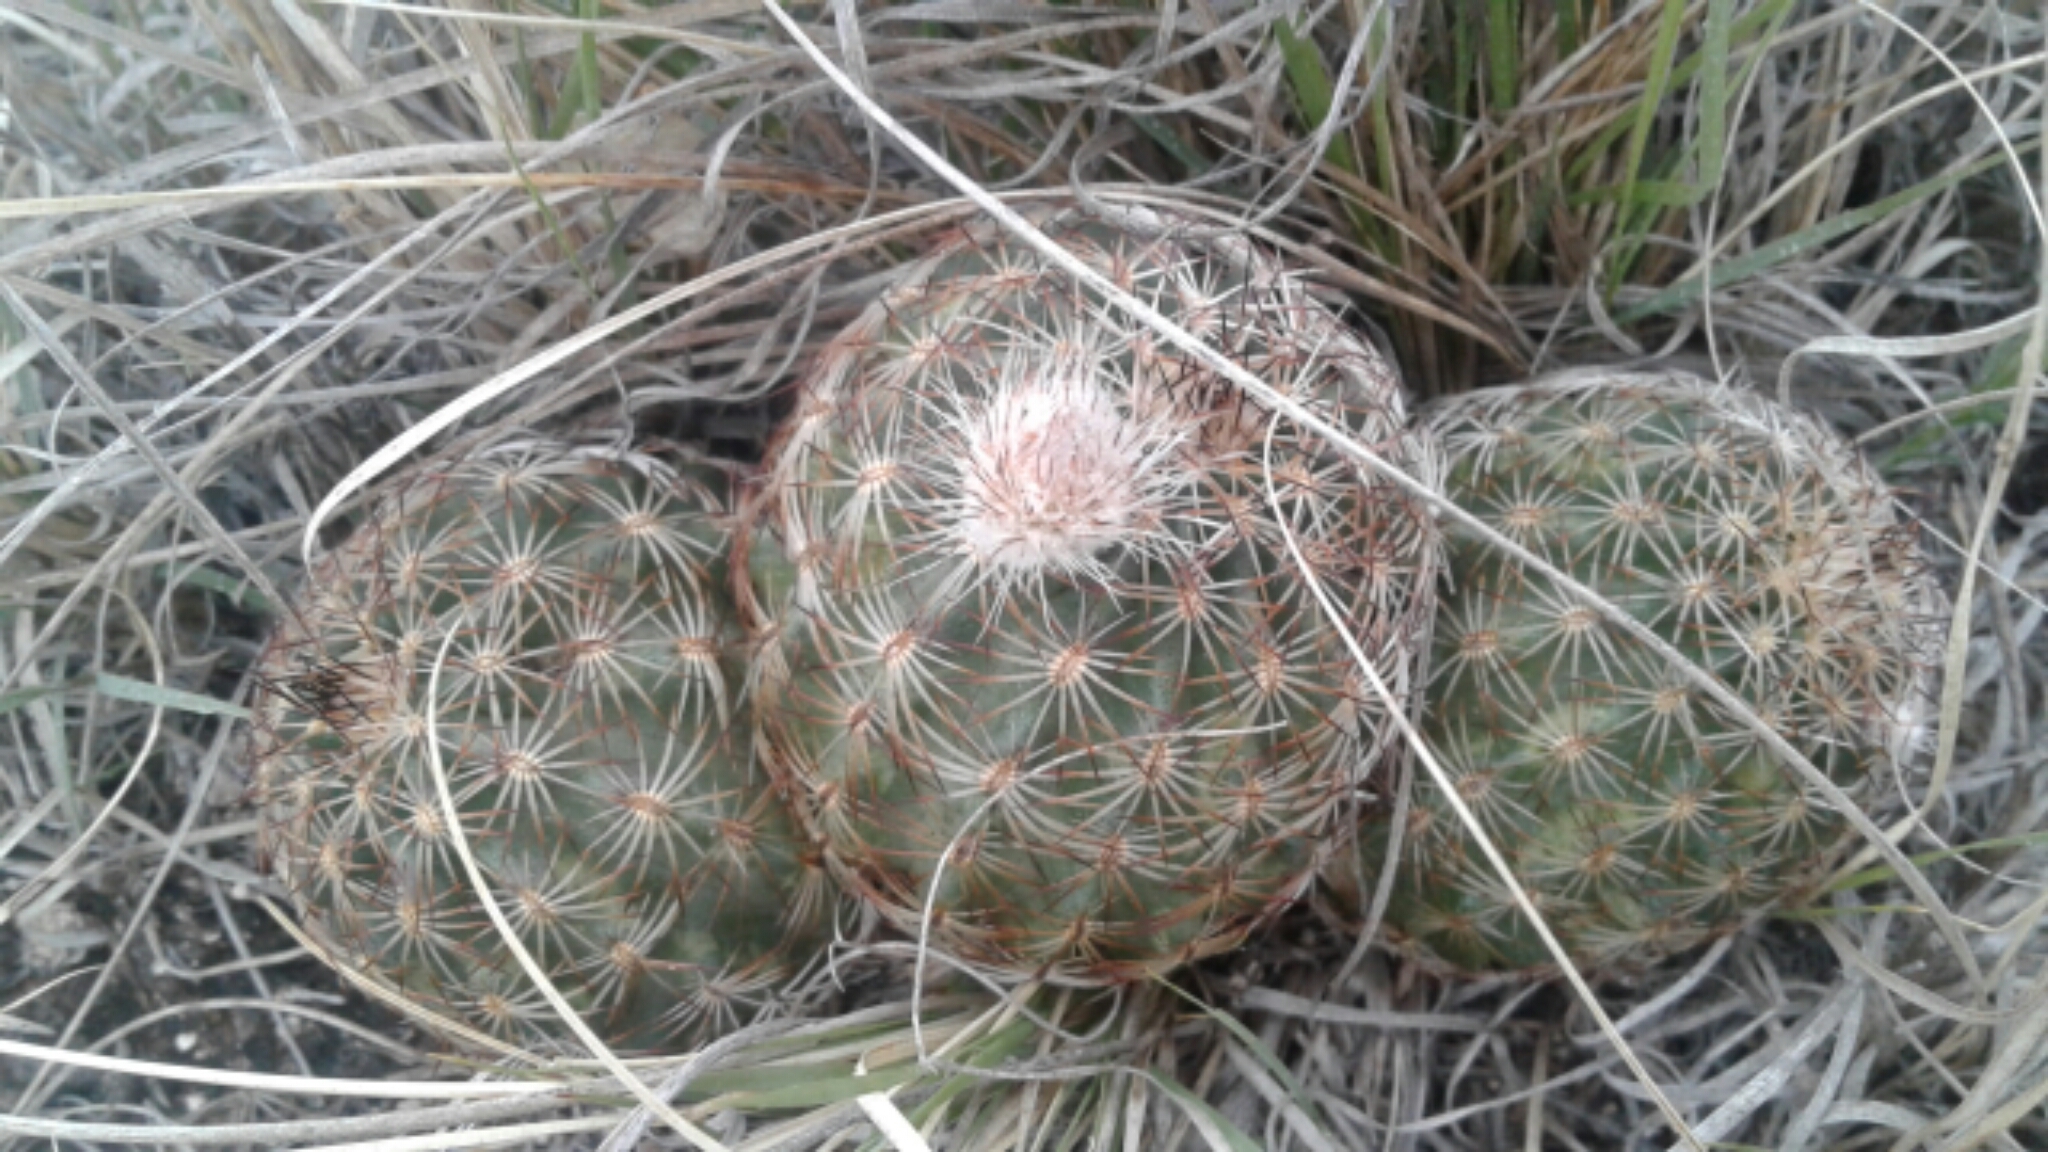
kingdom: Plantae
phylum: Tracheophyta
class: Magnoliopsida
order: Caryophyllales
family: Cactaceae
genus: Echinocereus
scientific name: Echinocereus reichenbachii
